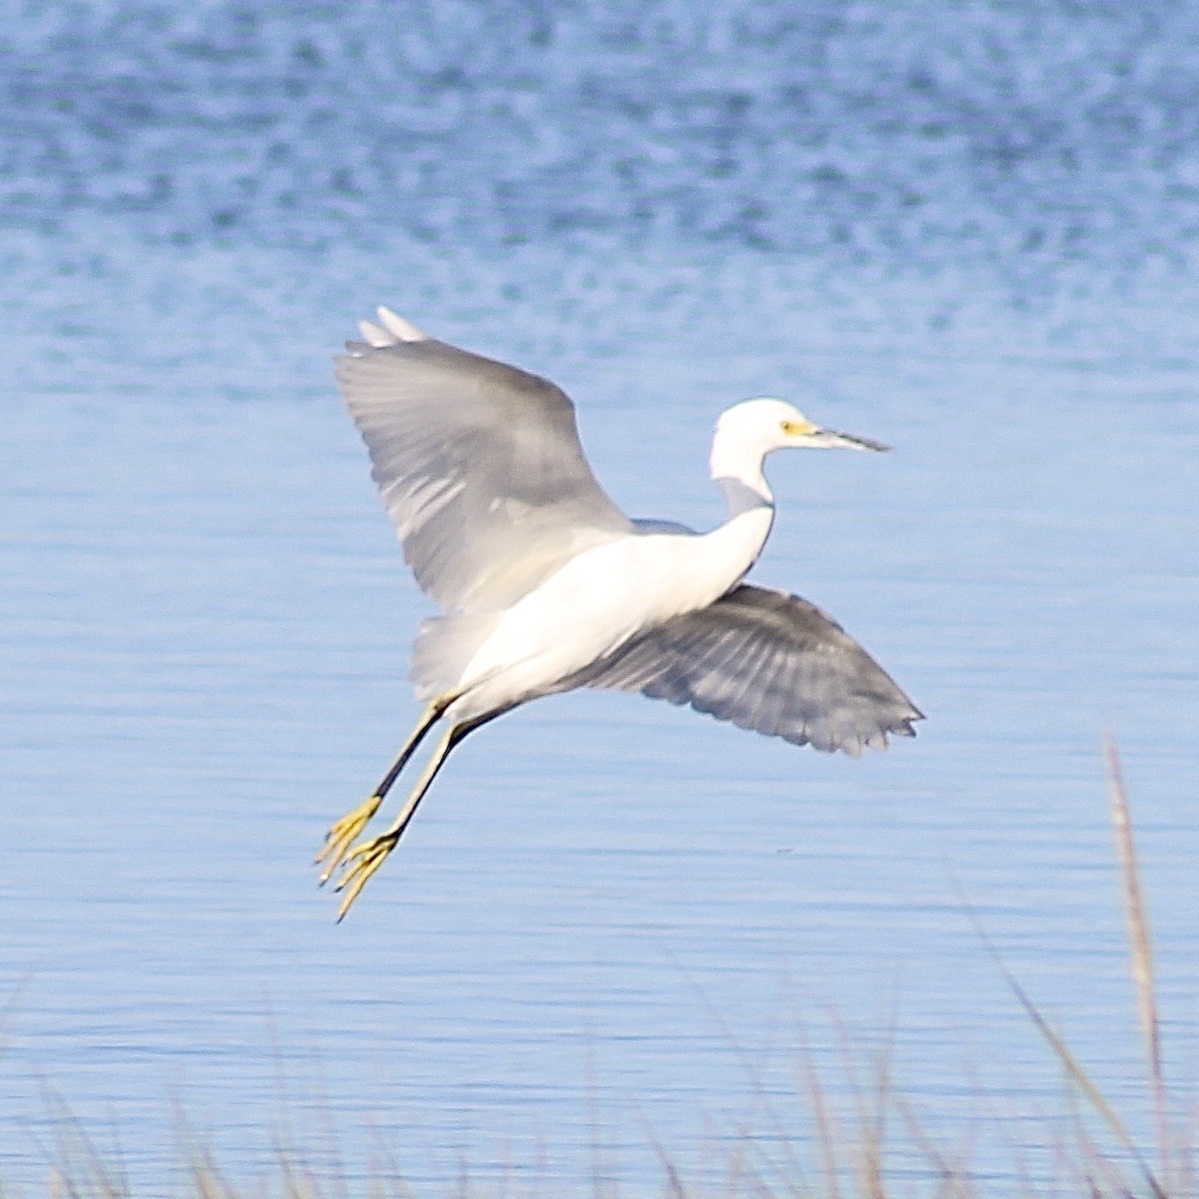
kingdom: Animalia
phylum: Chordata
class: Aves
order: Pelecaniformes
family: Ardeidae
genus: Egretta
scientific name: Egretta thula
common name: Snowy egret
